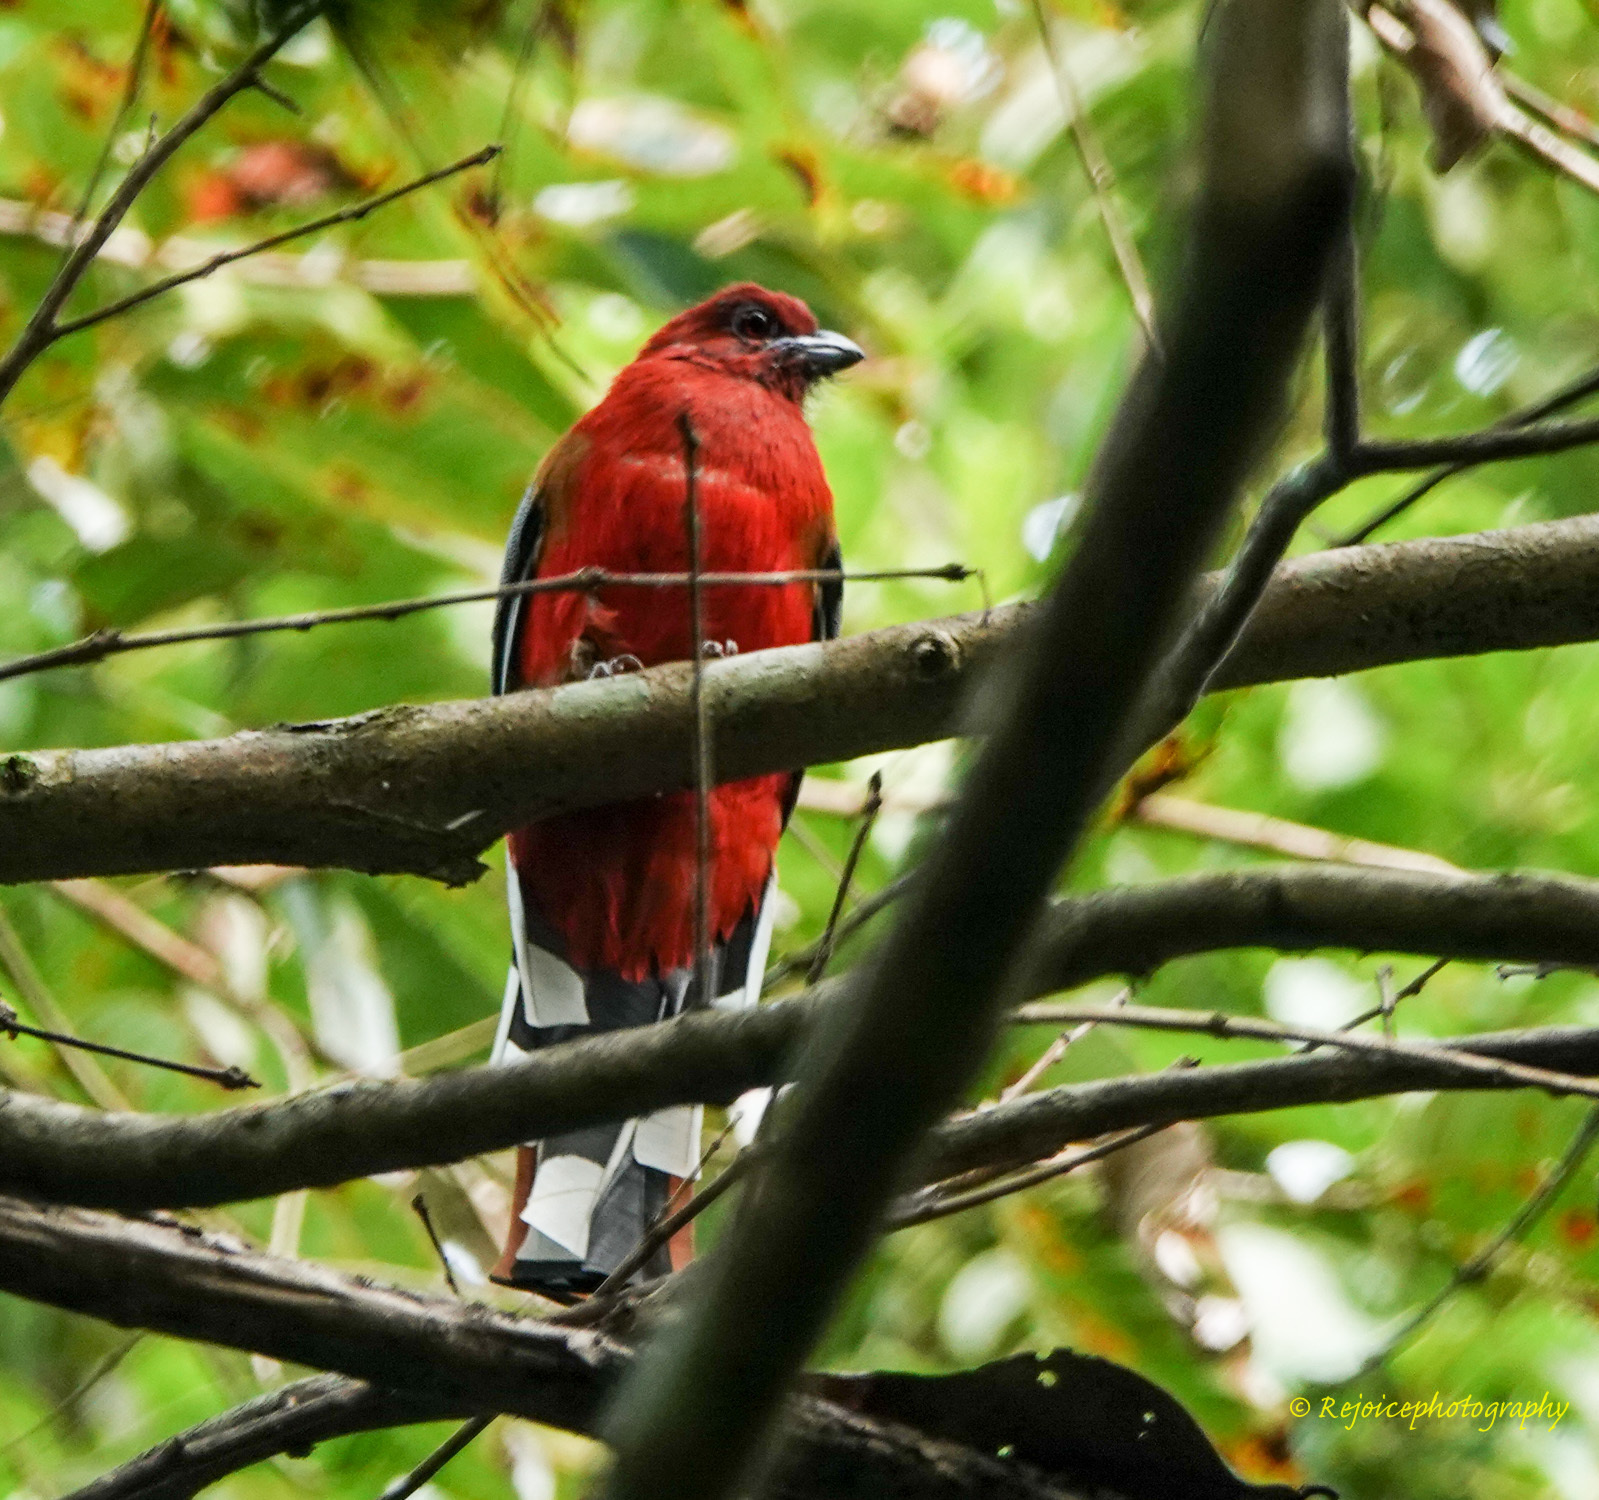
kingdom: Animalia
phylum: Chordata
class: Aves
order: Trogoniformes
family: Trogonidae
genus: Harpactes
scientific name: Harpactes erythrocephalus
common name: Red-headed trogon
